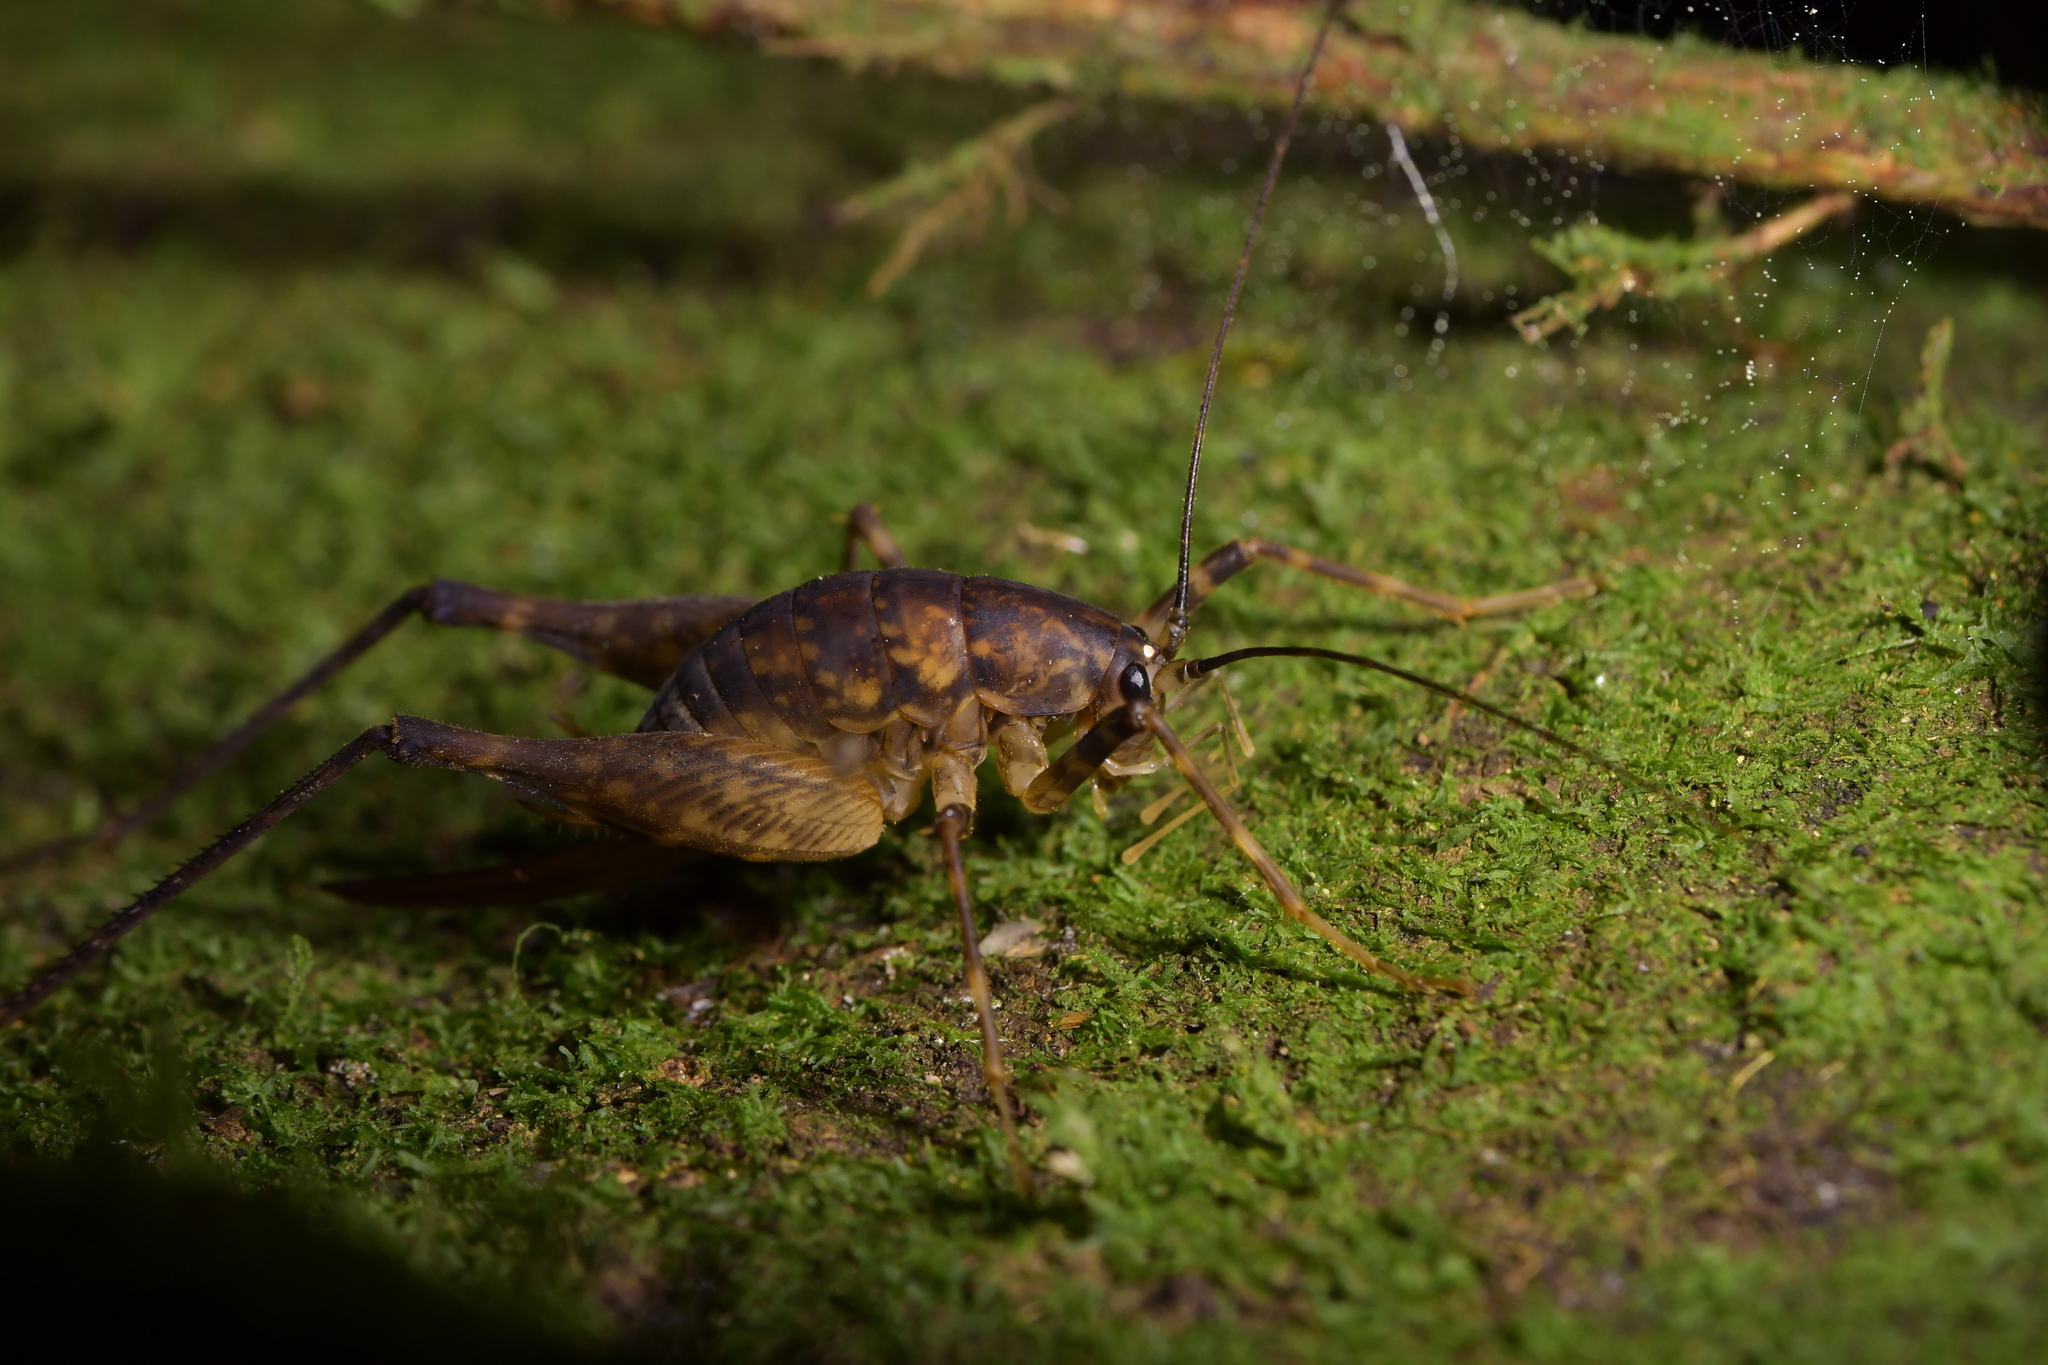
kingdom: Animalia
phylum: Arthropoda
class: Insecta
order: Orthoptera
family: Rhaphidophoridae
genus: Miotopus
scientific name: Miotopus diversus
